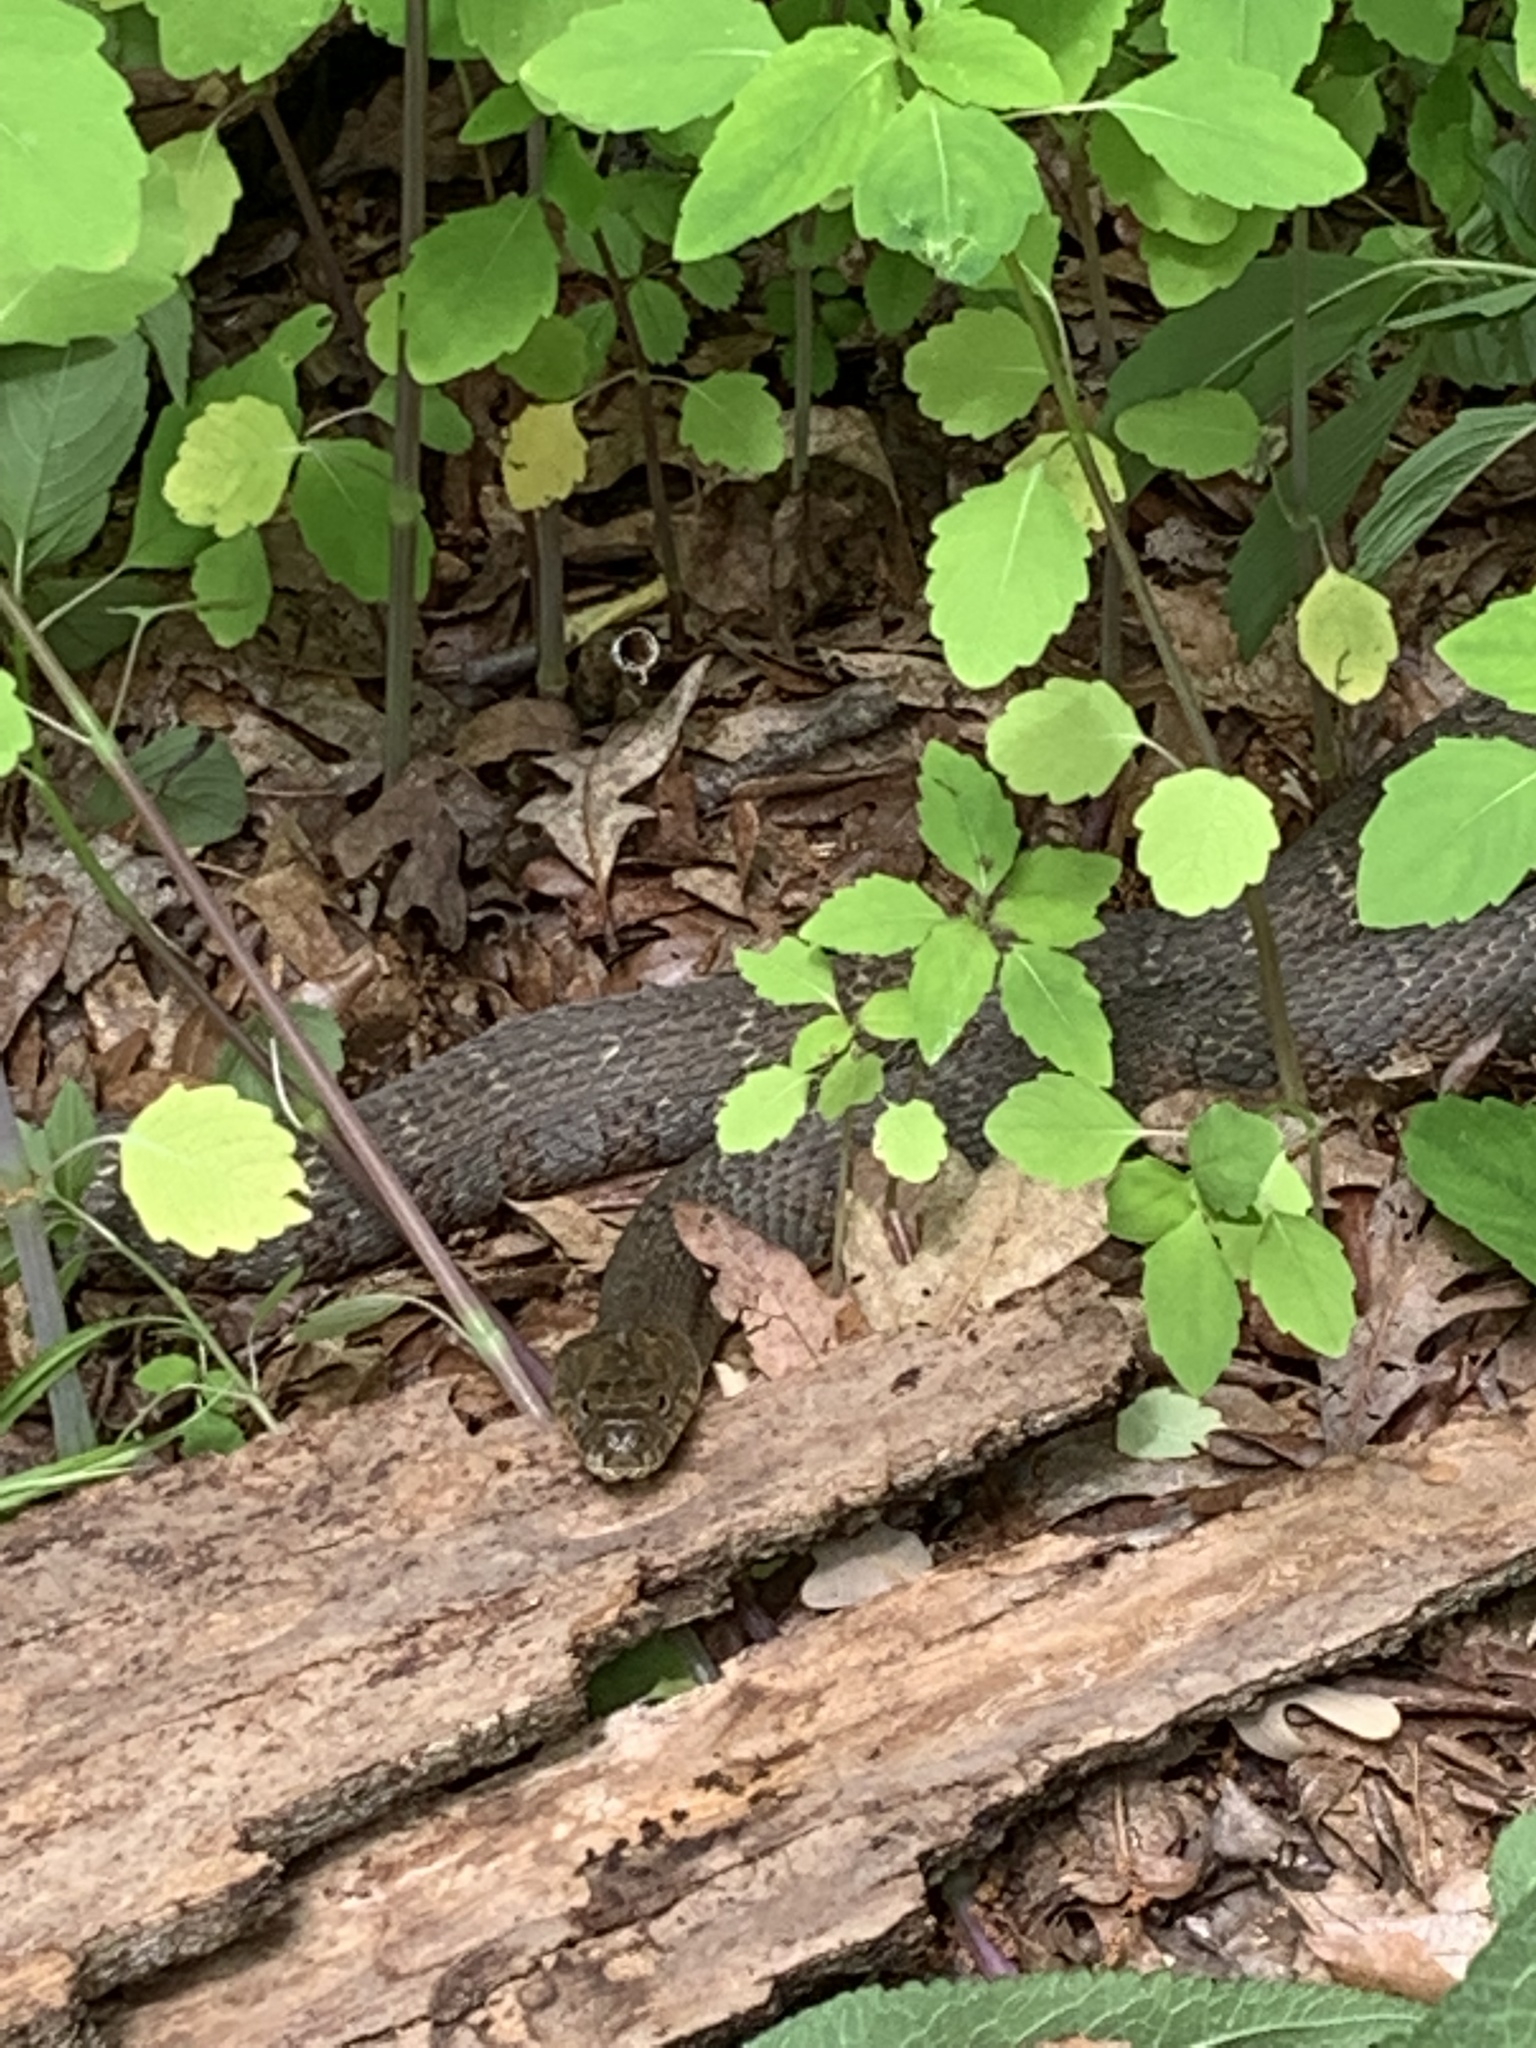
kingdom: Animalia
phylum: Chordata
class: Squamata
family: Colubridae
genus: Nerodia
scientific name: Nerodia sipedon
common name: Northern water snake
